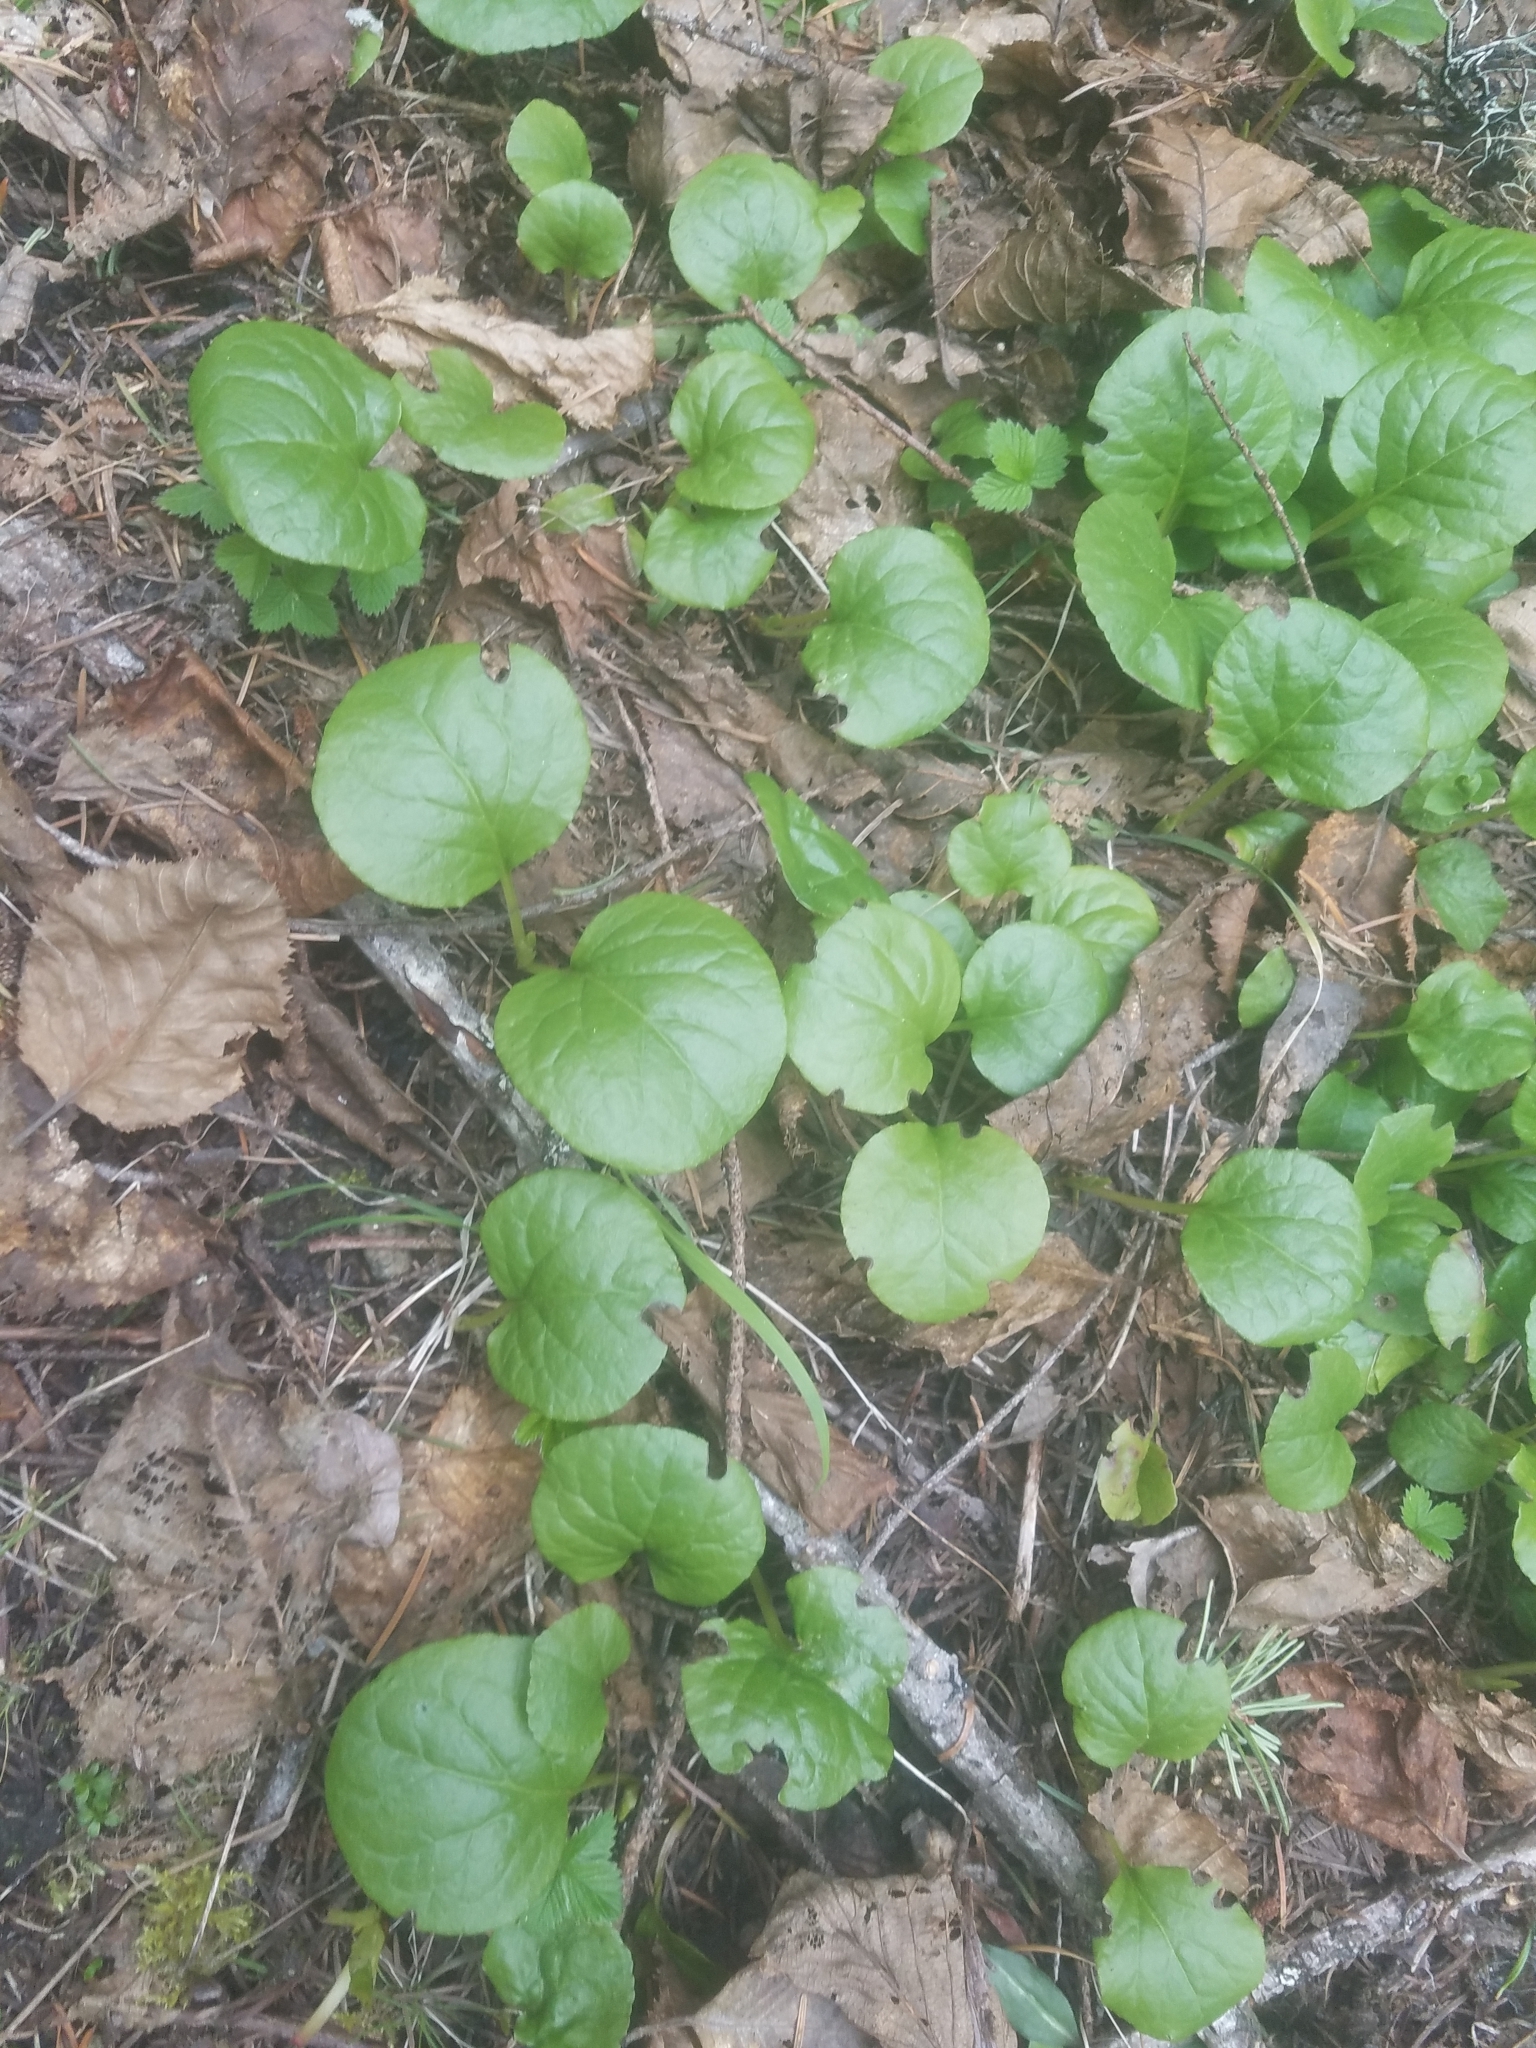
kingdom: Plantae
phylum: Tracheophyta
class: Magnoliopsida
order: Ericales
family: Ericaceae
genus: Pyrola
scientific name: Pyrola asarifolia
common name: Bog wintergreen
